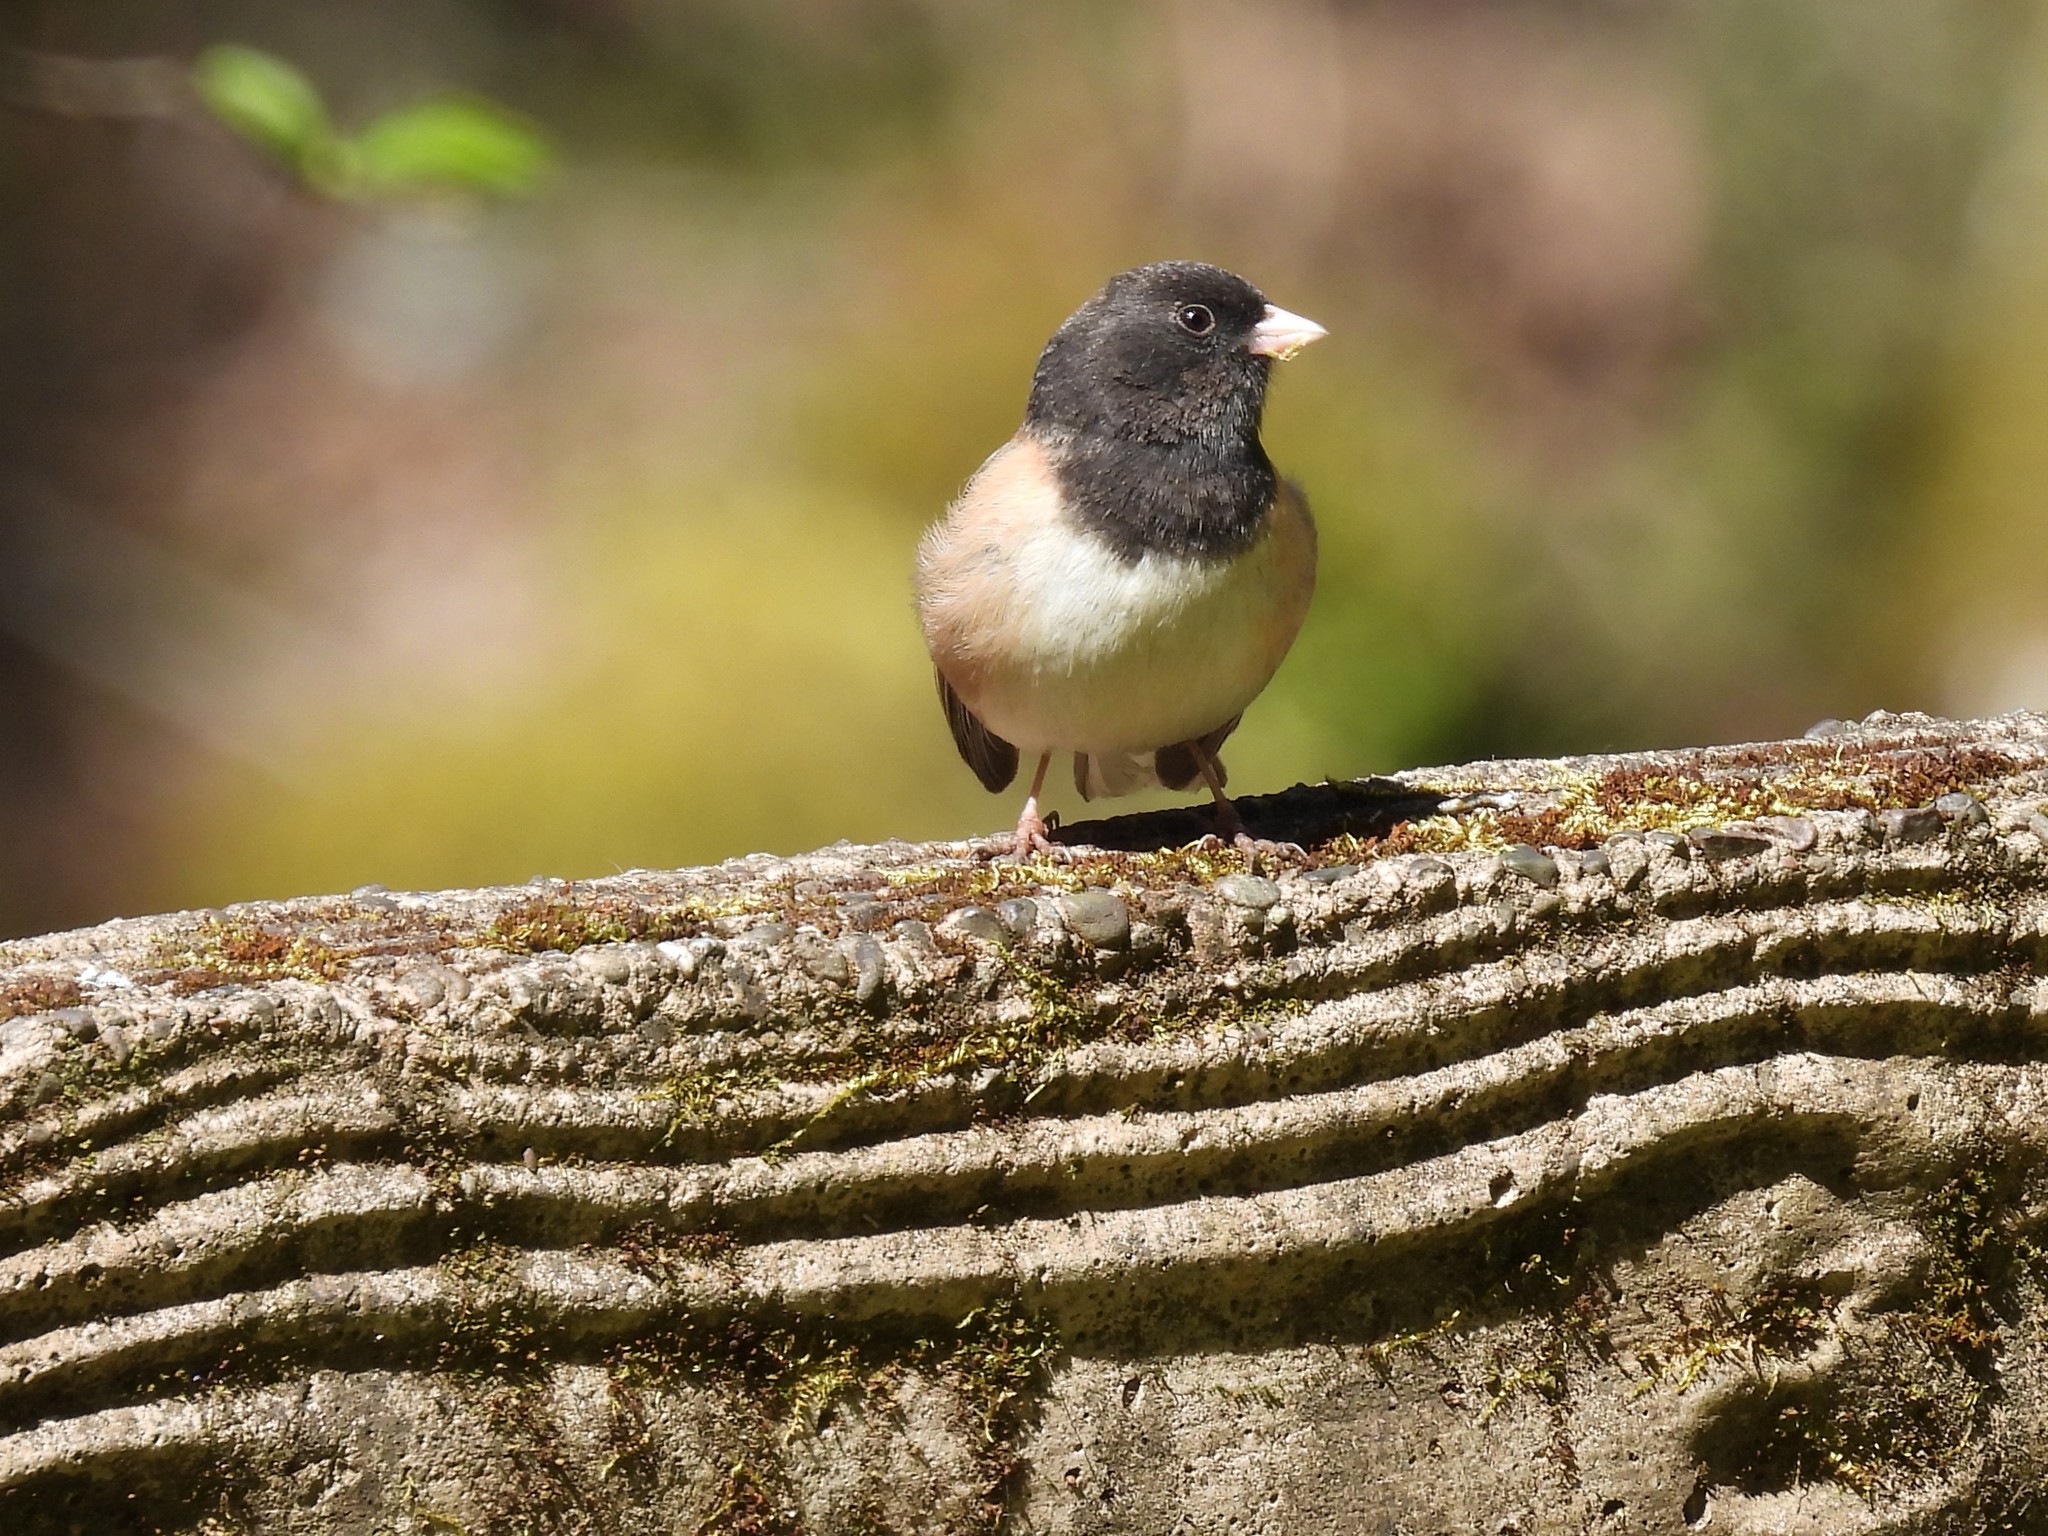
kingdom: Animalia
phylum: Chordata
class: Aves
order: Passeriformes
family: Passerellidae
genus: Junco
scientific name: Junco hyemalis
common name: Dark-eyed junco
